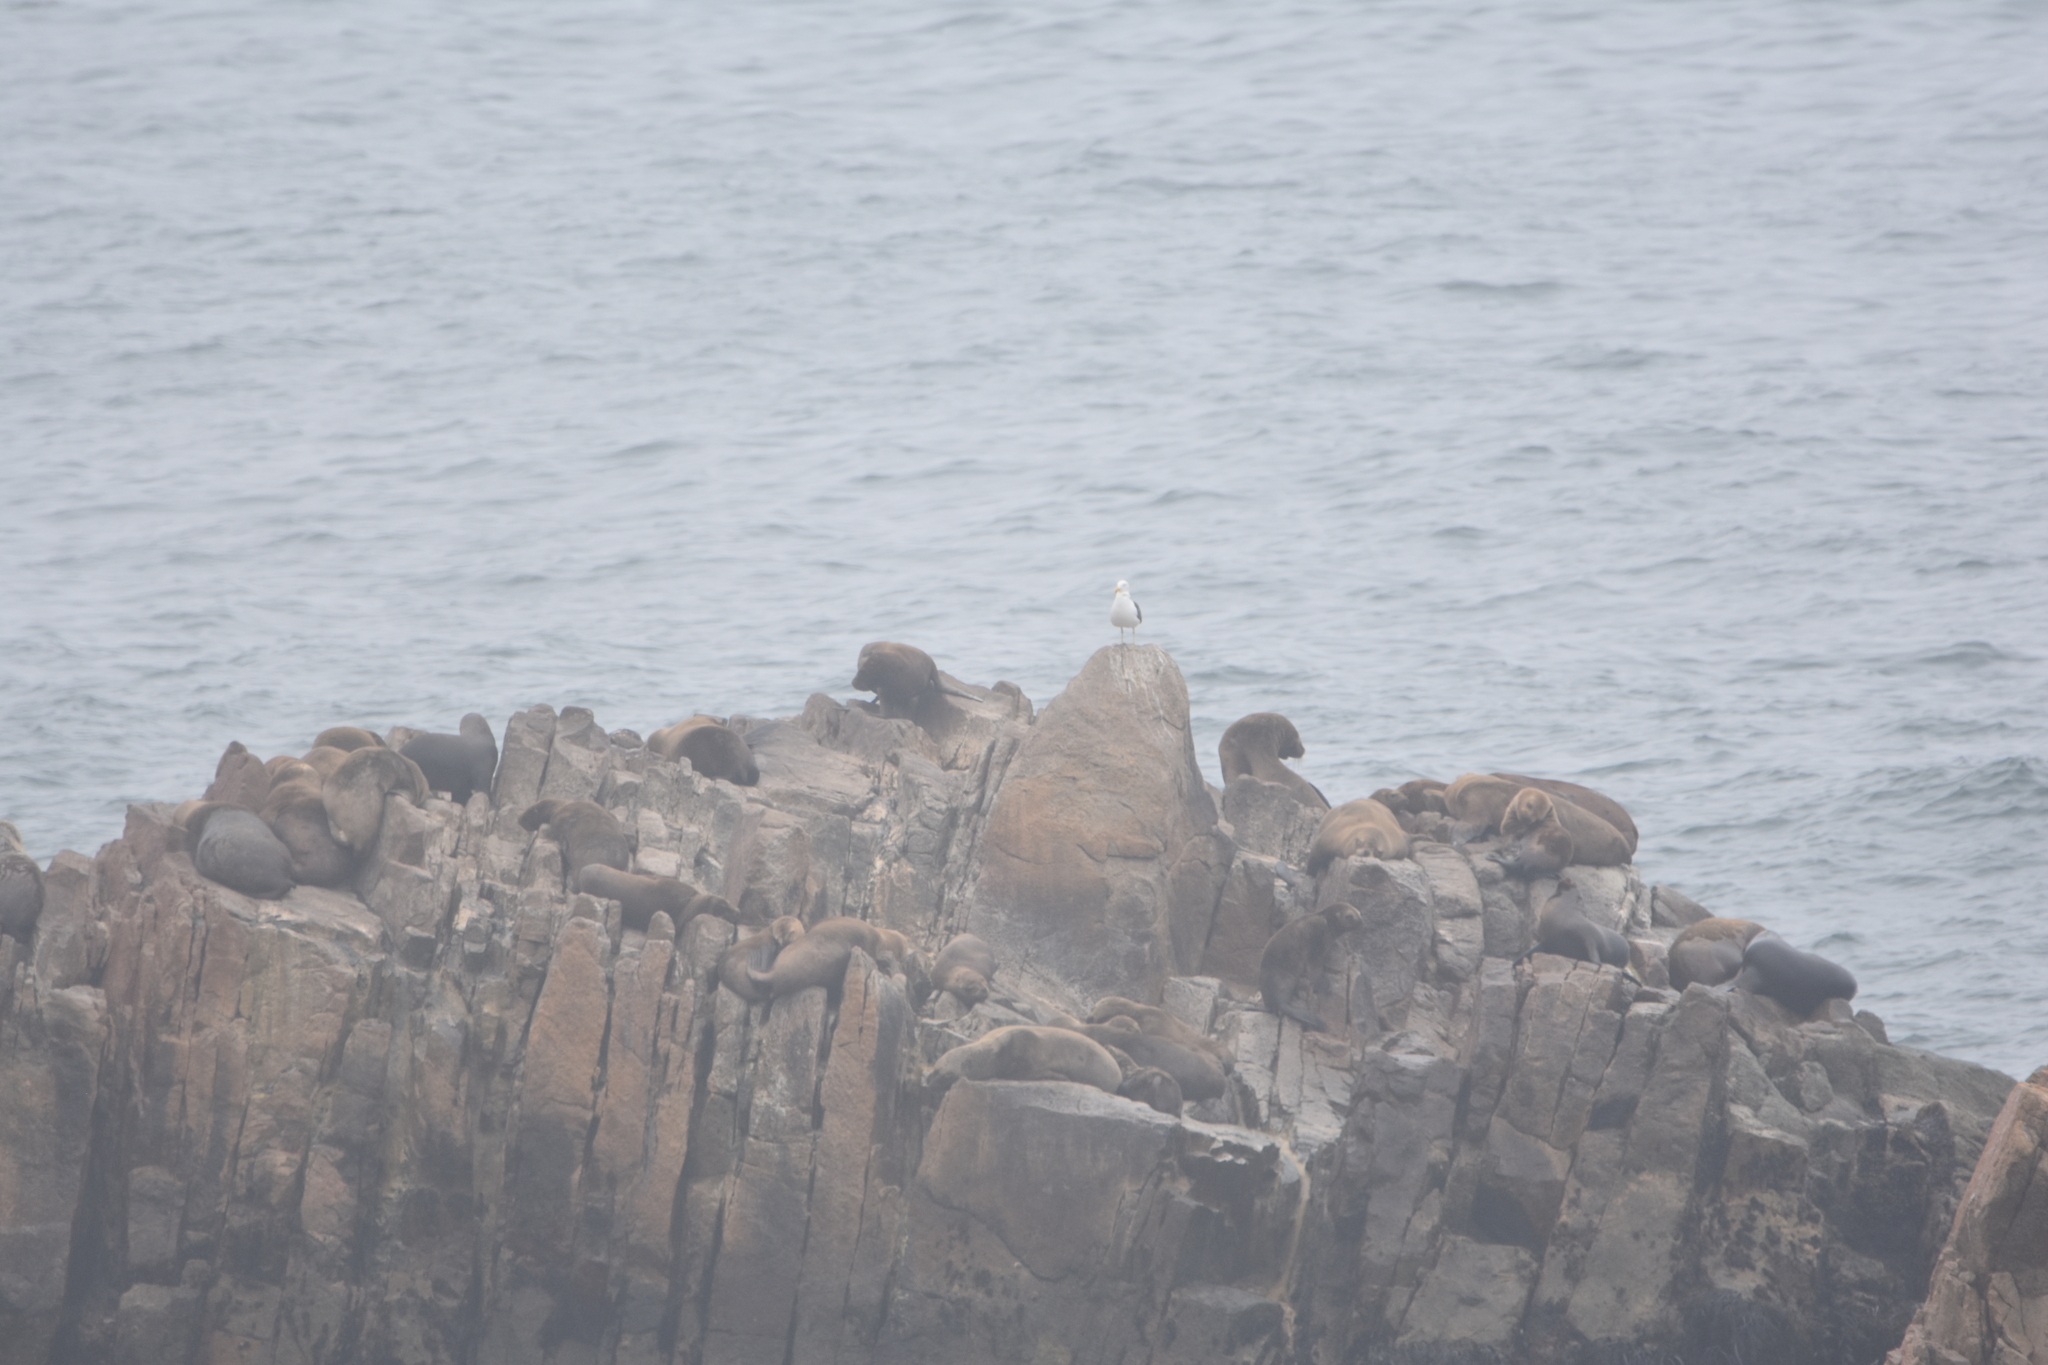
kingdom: Animalia
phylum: Chordata
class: Mammalia
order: Carnivora
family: Otariidae
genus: Otaria
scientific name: Otaria byronia
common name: South american sea lion
